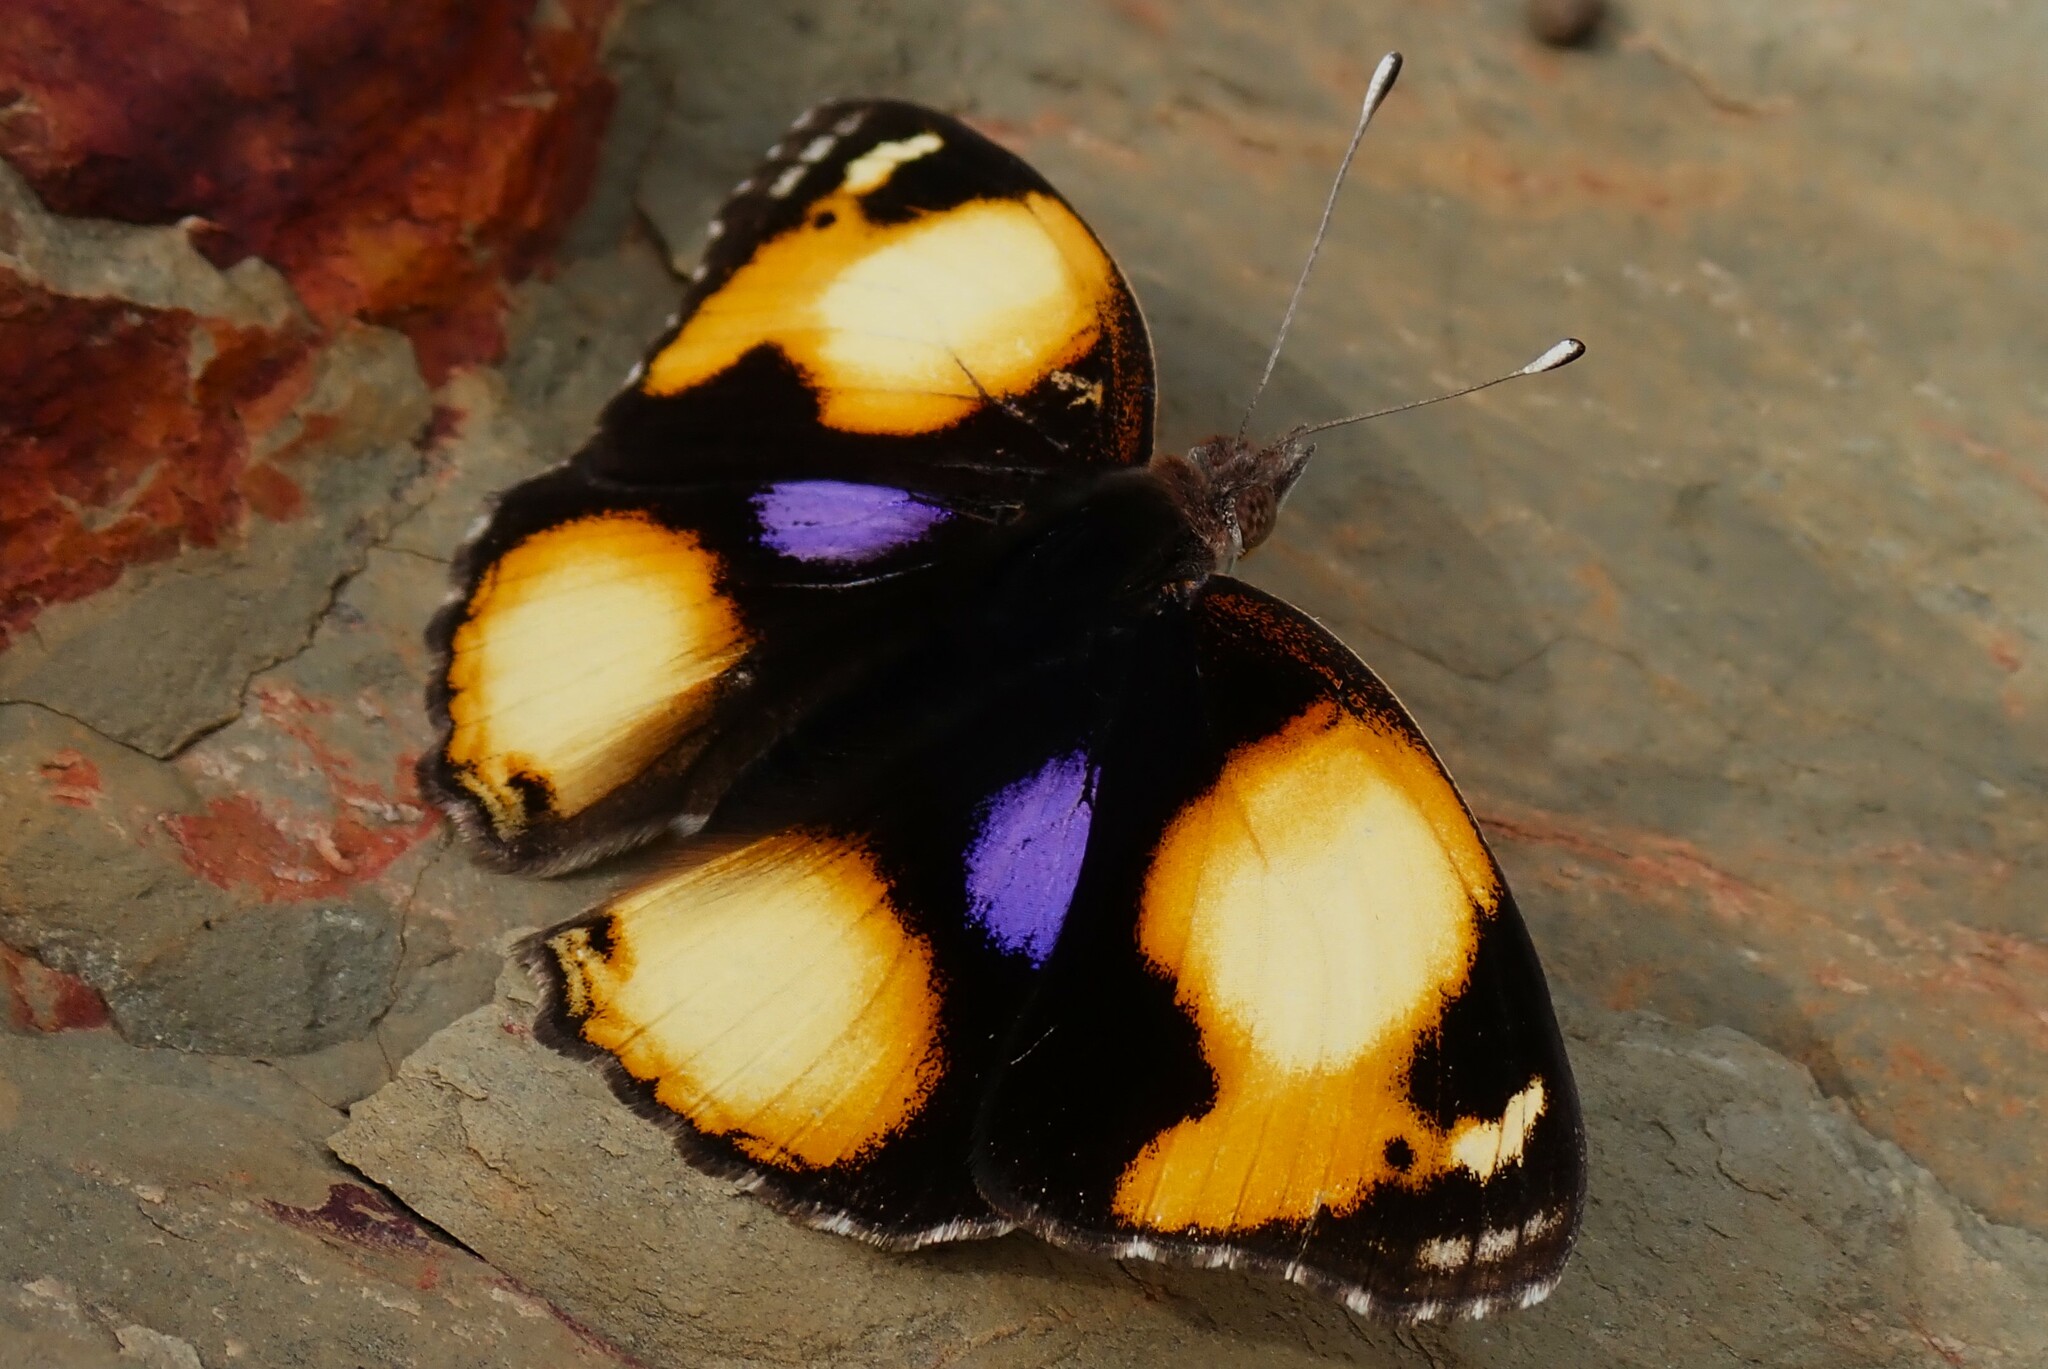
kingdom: Animalia
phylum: Arthropoda
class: Insecta
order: Lepidoptera
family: Nymphalidae
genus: Junonia
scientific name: Junonia hierta
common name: Yellow pansy
